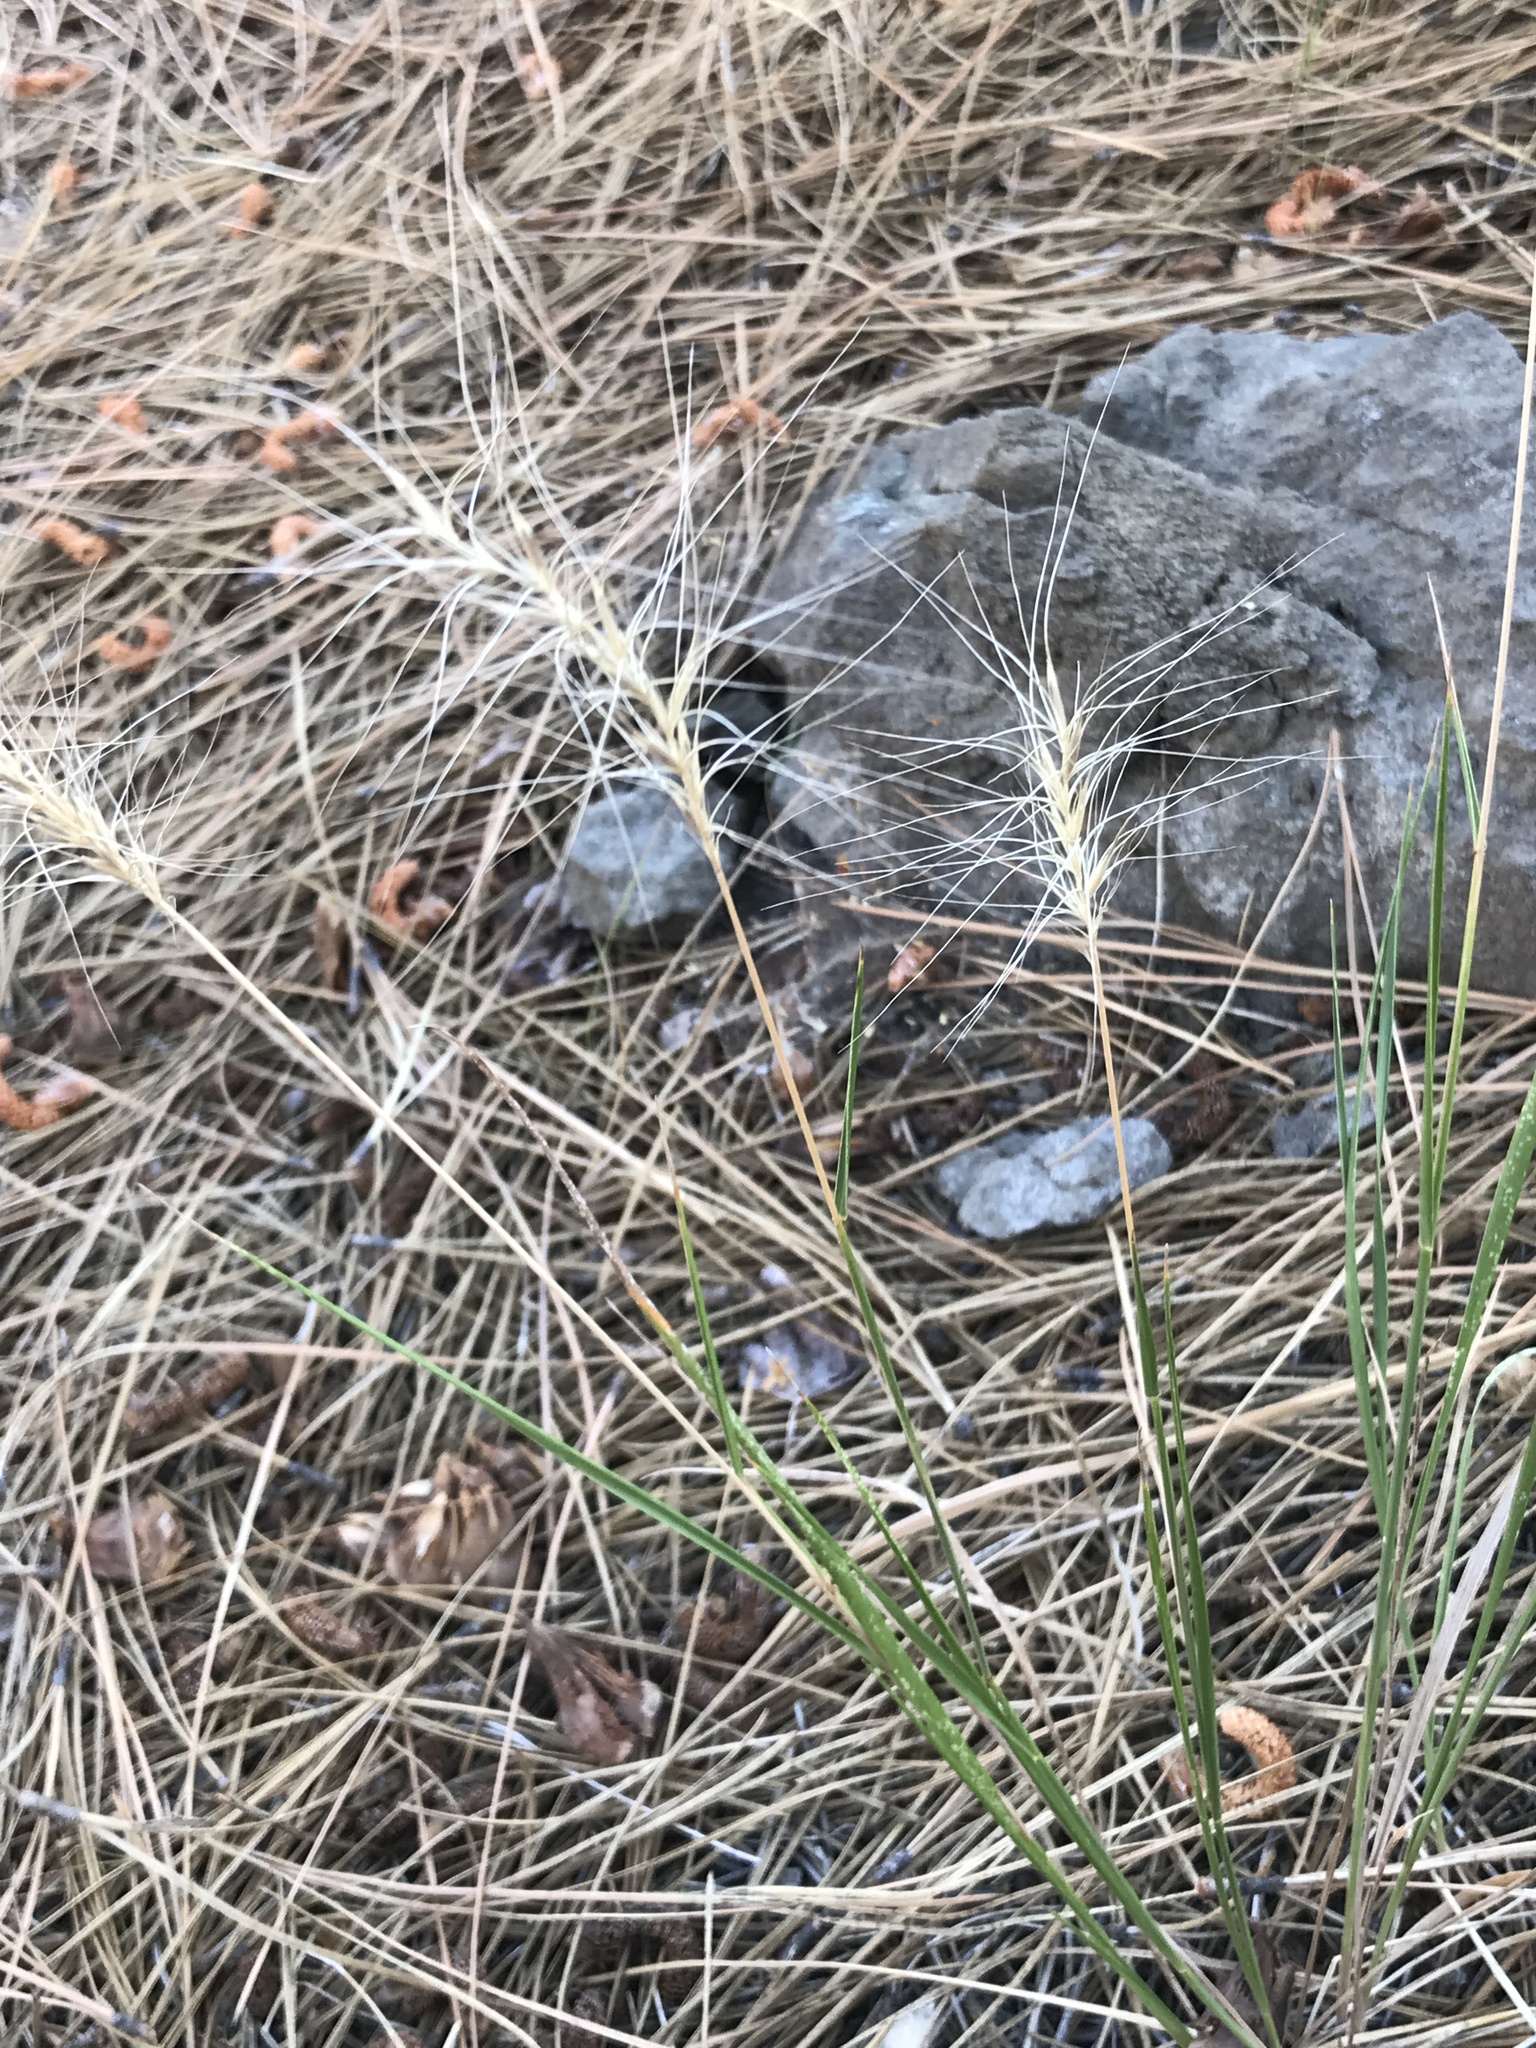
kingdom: Plantae
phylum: Tracheophyta
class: Liliopsida
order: Poales
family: Poaceae
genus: Elymus
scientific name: Elymus elymoides
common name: Bottlebrush squirreltail
